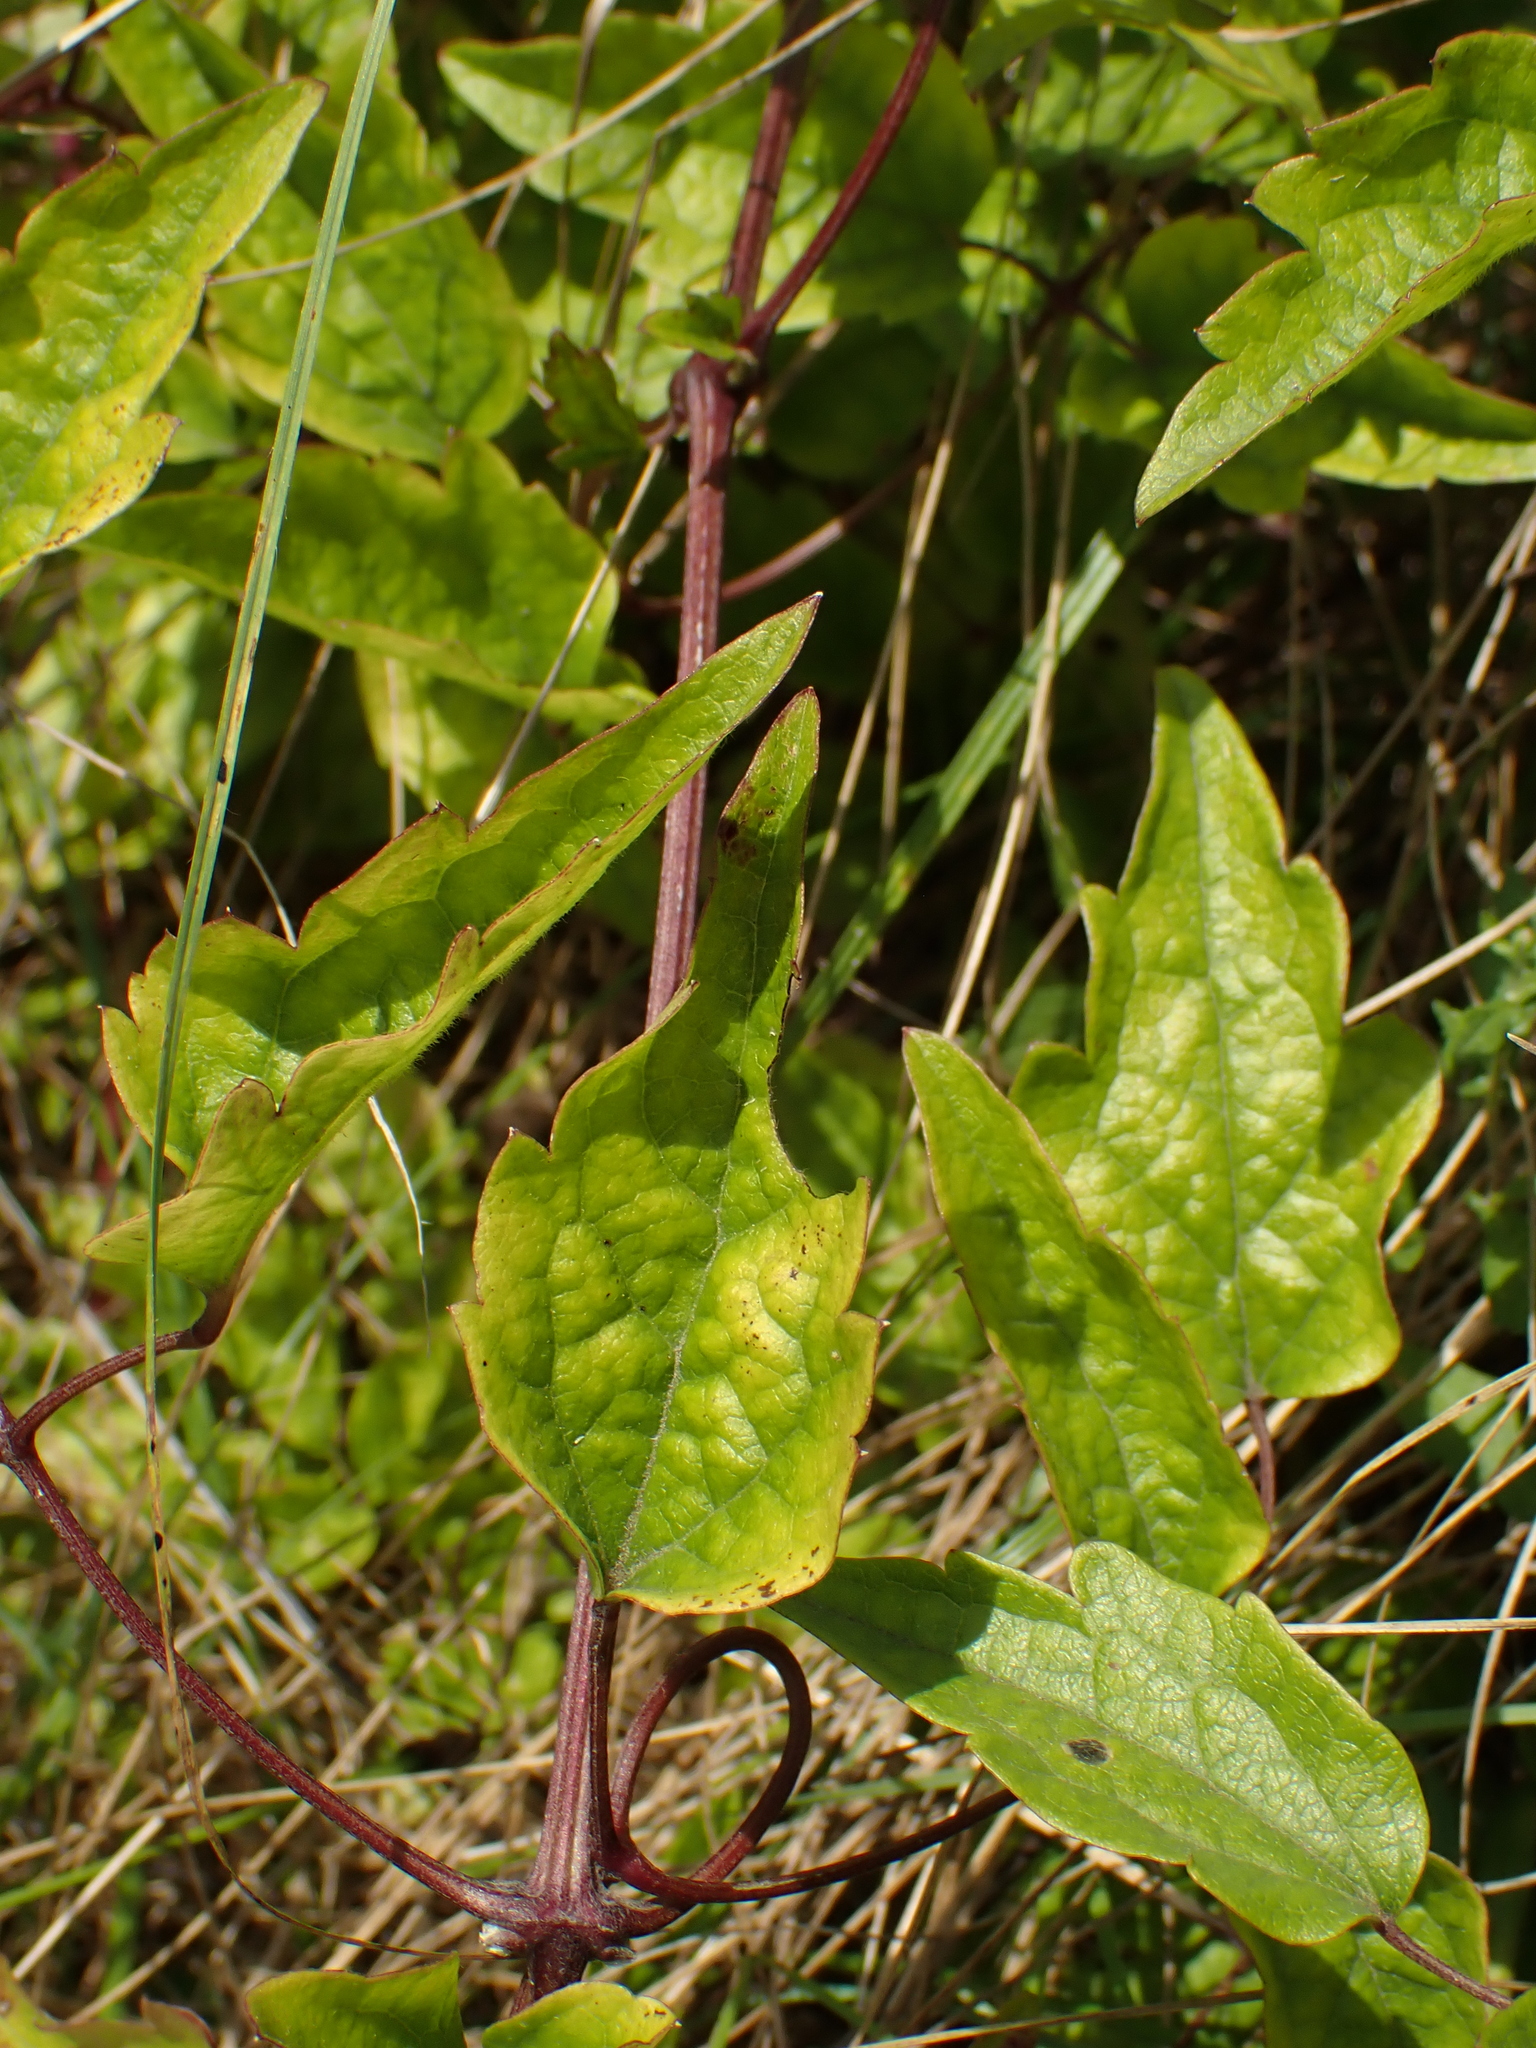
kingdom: Plantae
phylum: Tracheophyta
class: Magnoliopsida
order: Ranunculales
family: Ranunculaceae
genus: Clematis
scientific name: Clematis vitalba
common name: Evergreen clematis
